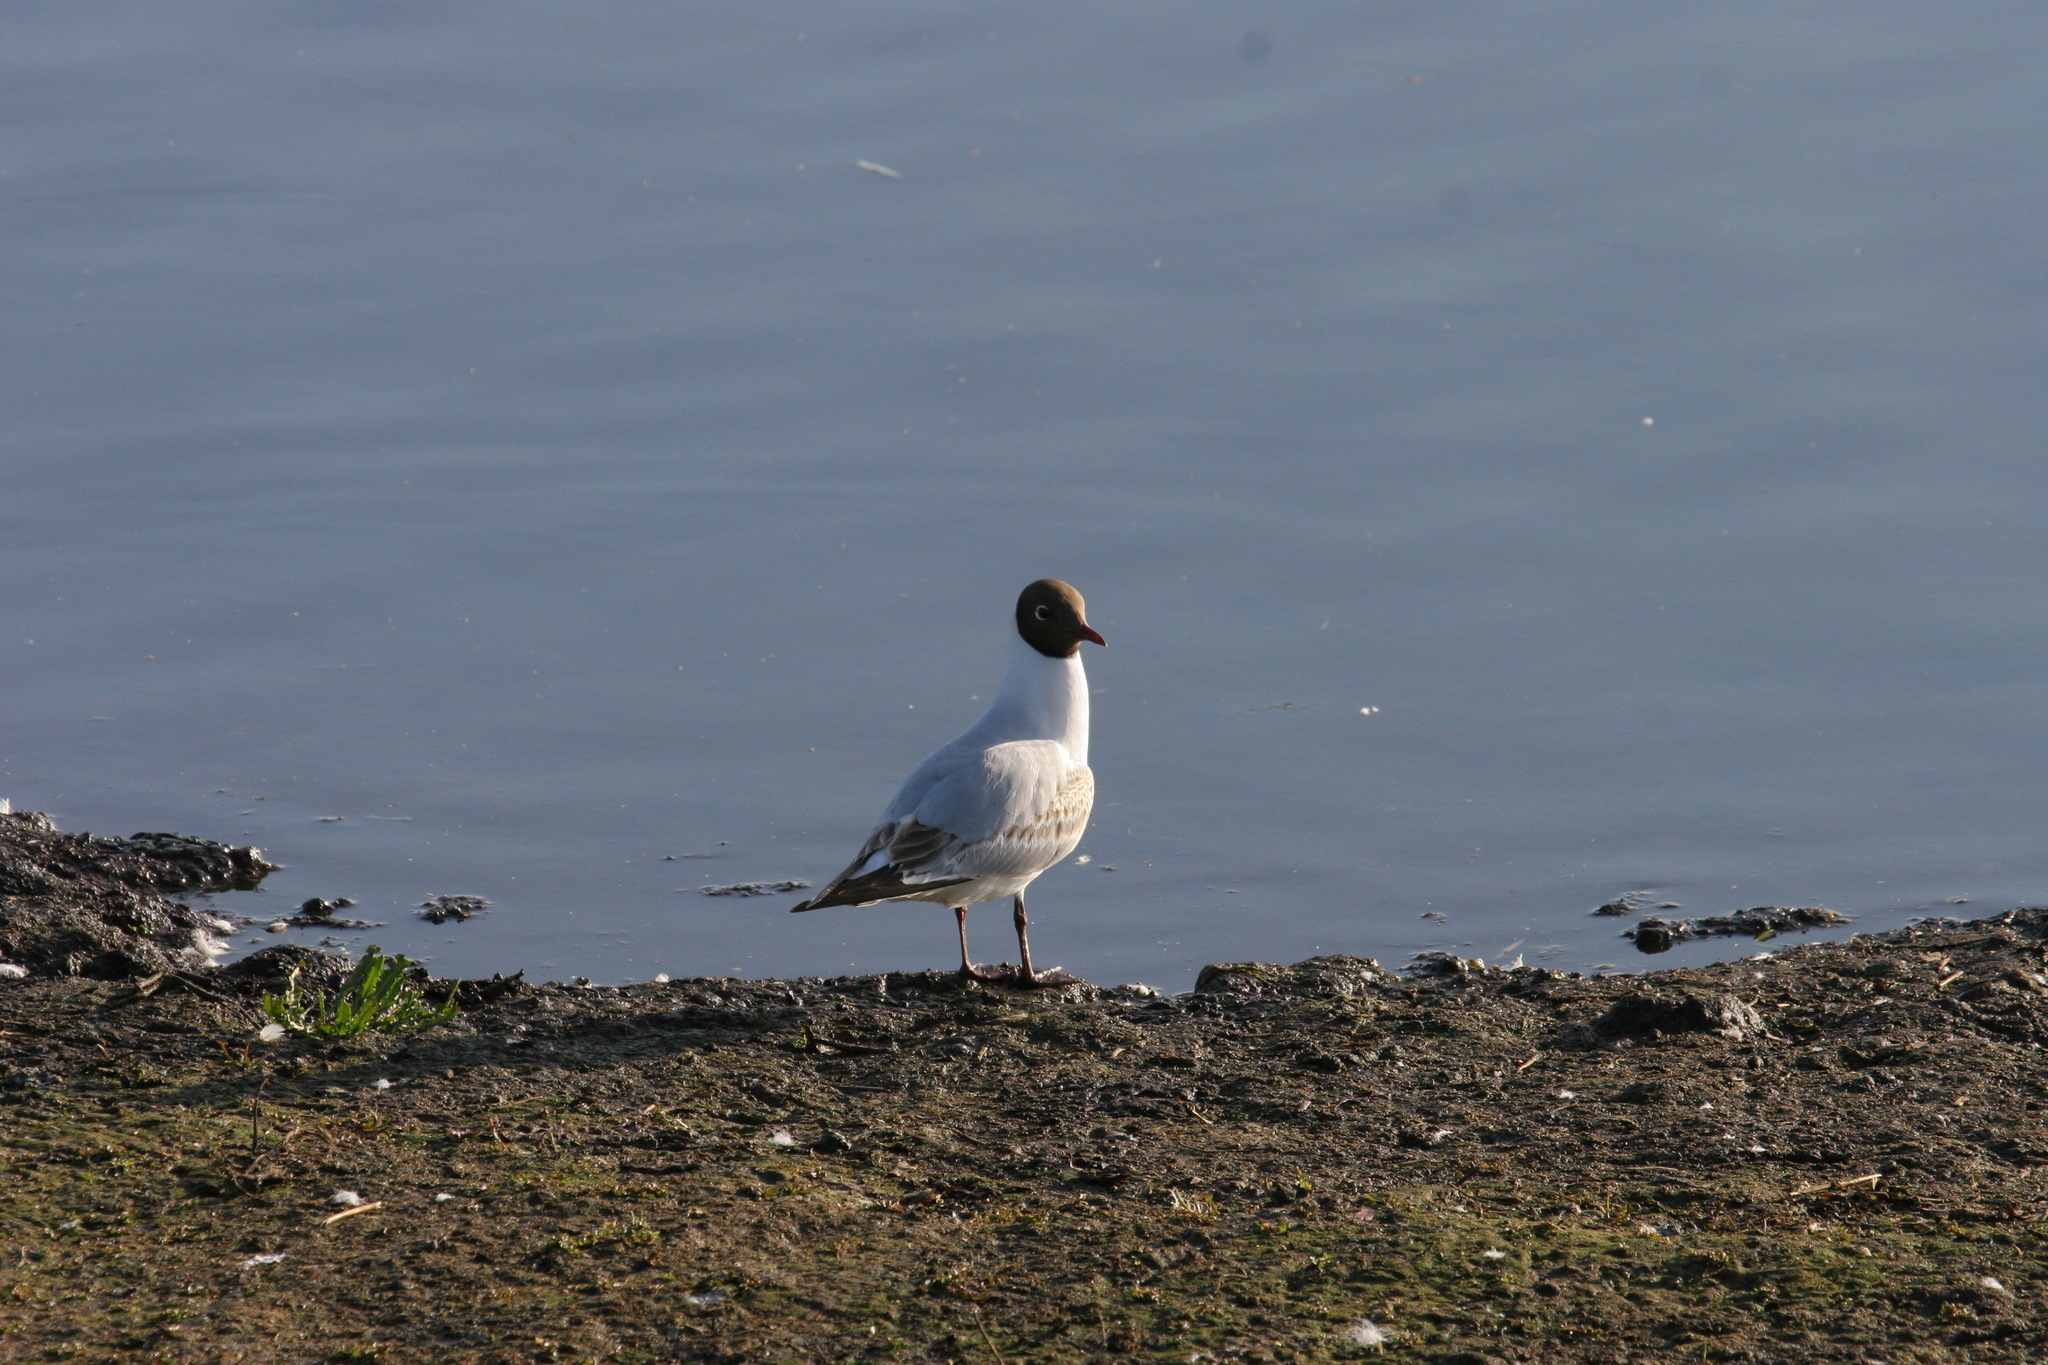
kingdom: Animalia
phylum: Chordata
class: Aves
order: Charadriiformes
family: Laridae
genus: Chroicocephalus
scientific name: Chroicocephalus ridibundus
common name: Black-headed gull
